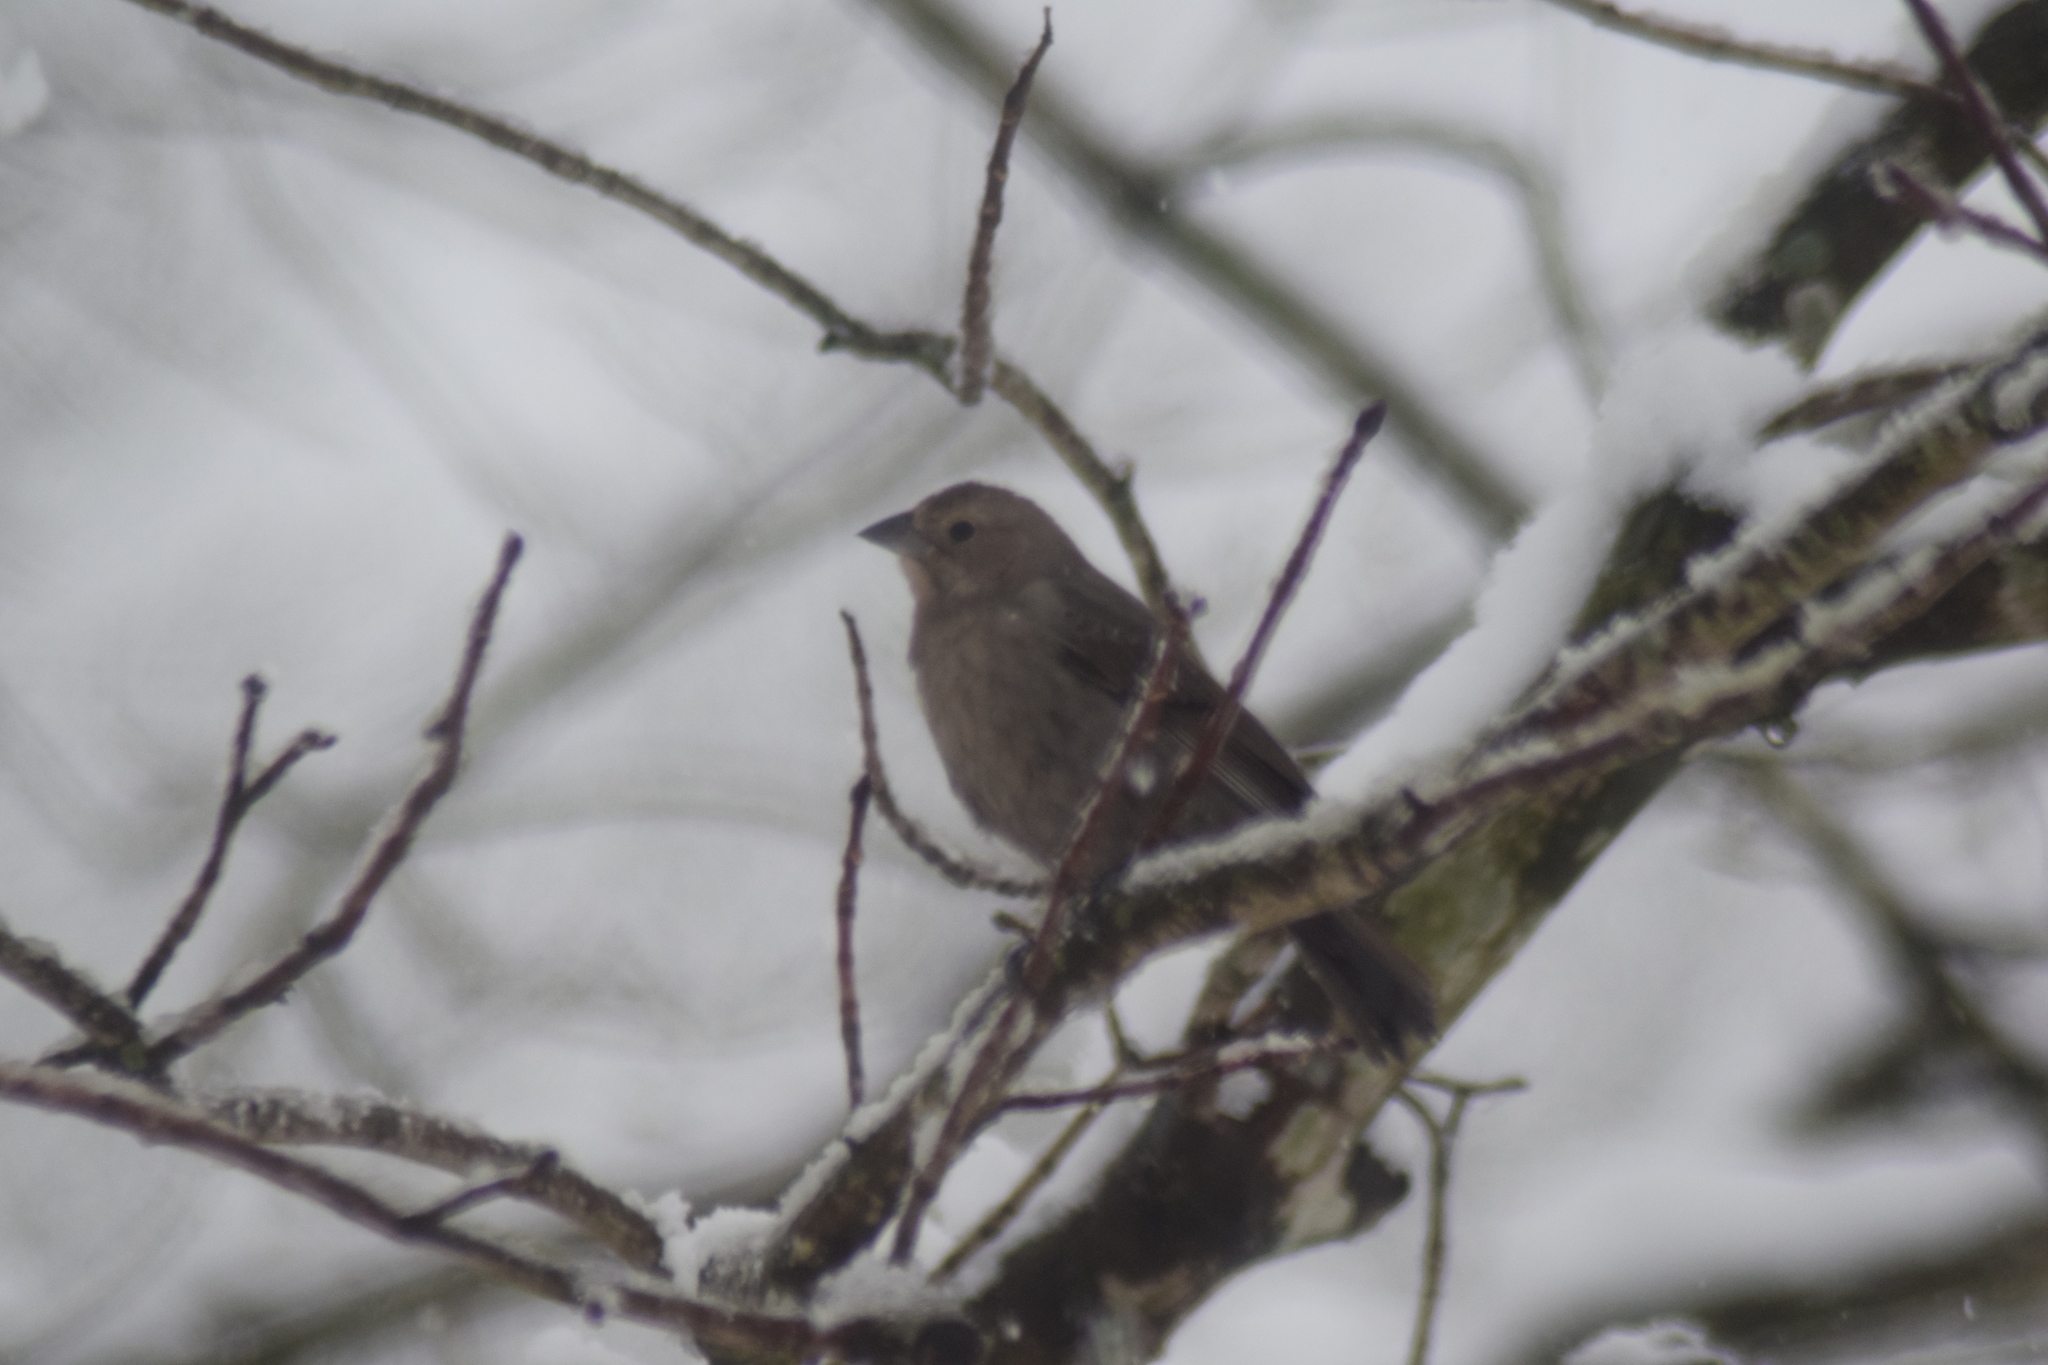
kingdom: Animalia
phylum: Chordata
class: Aves
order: Passeriformes
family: Icteridae
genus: Molothrus
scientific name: Molothrus ater
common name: Brown-headed cowbird
